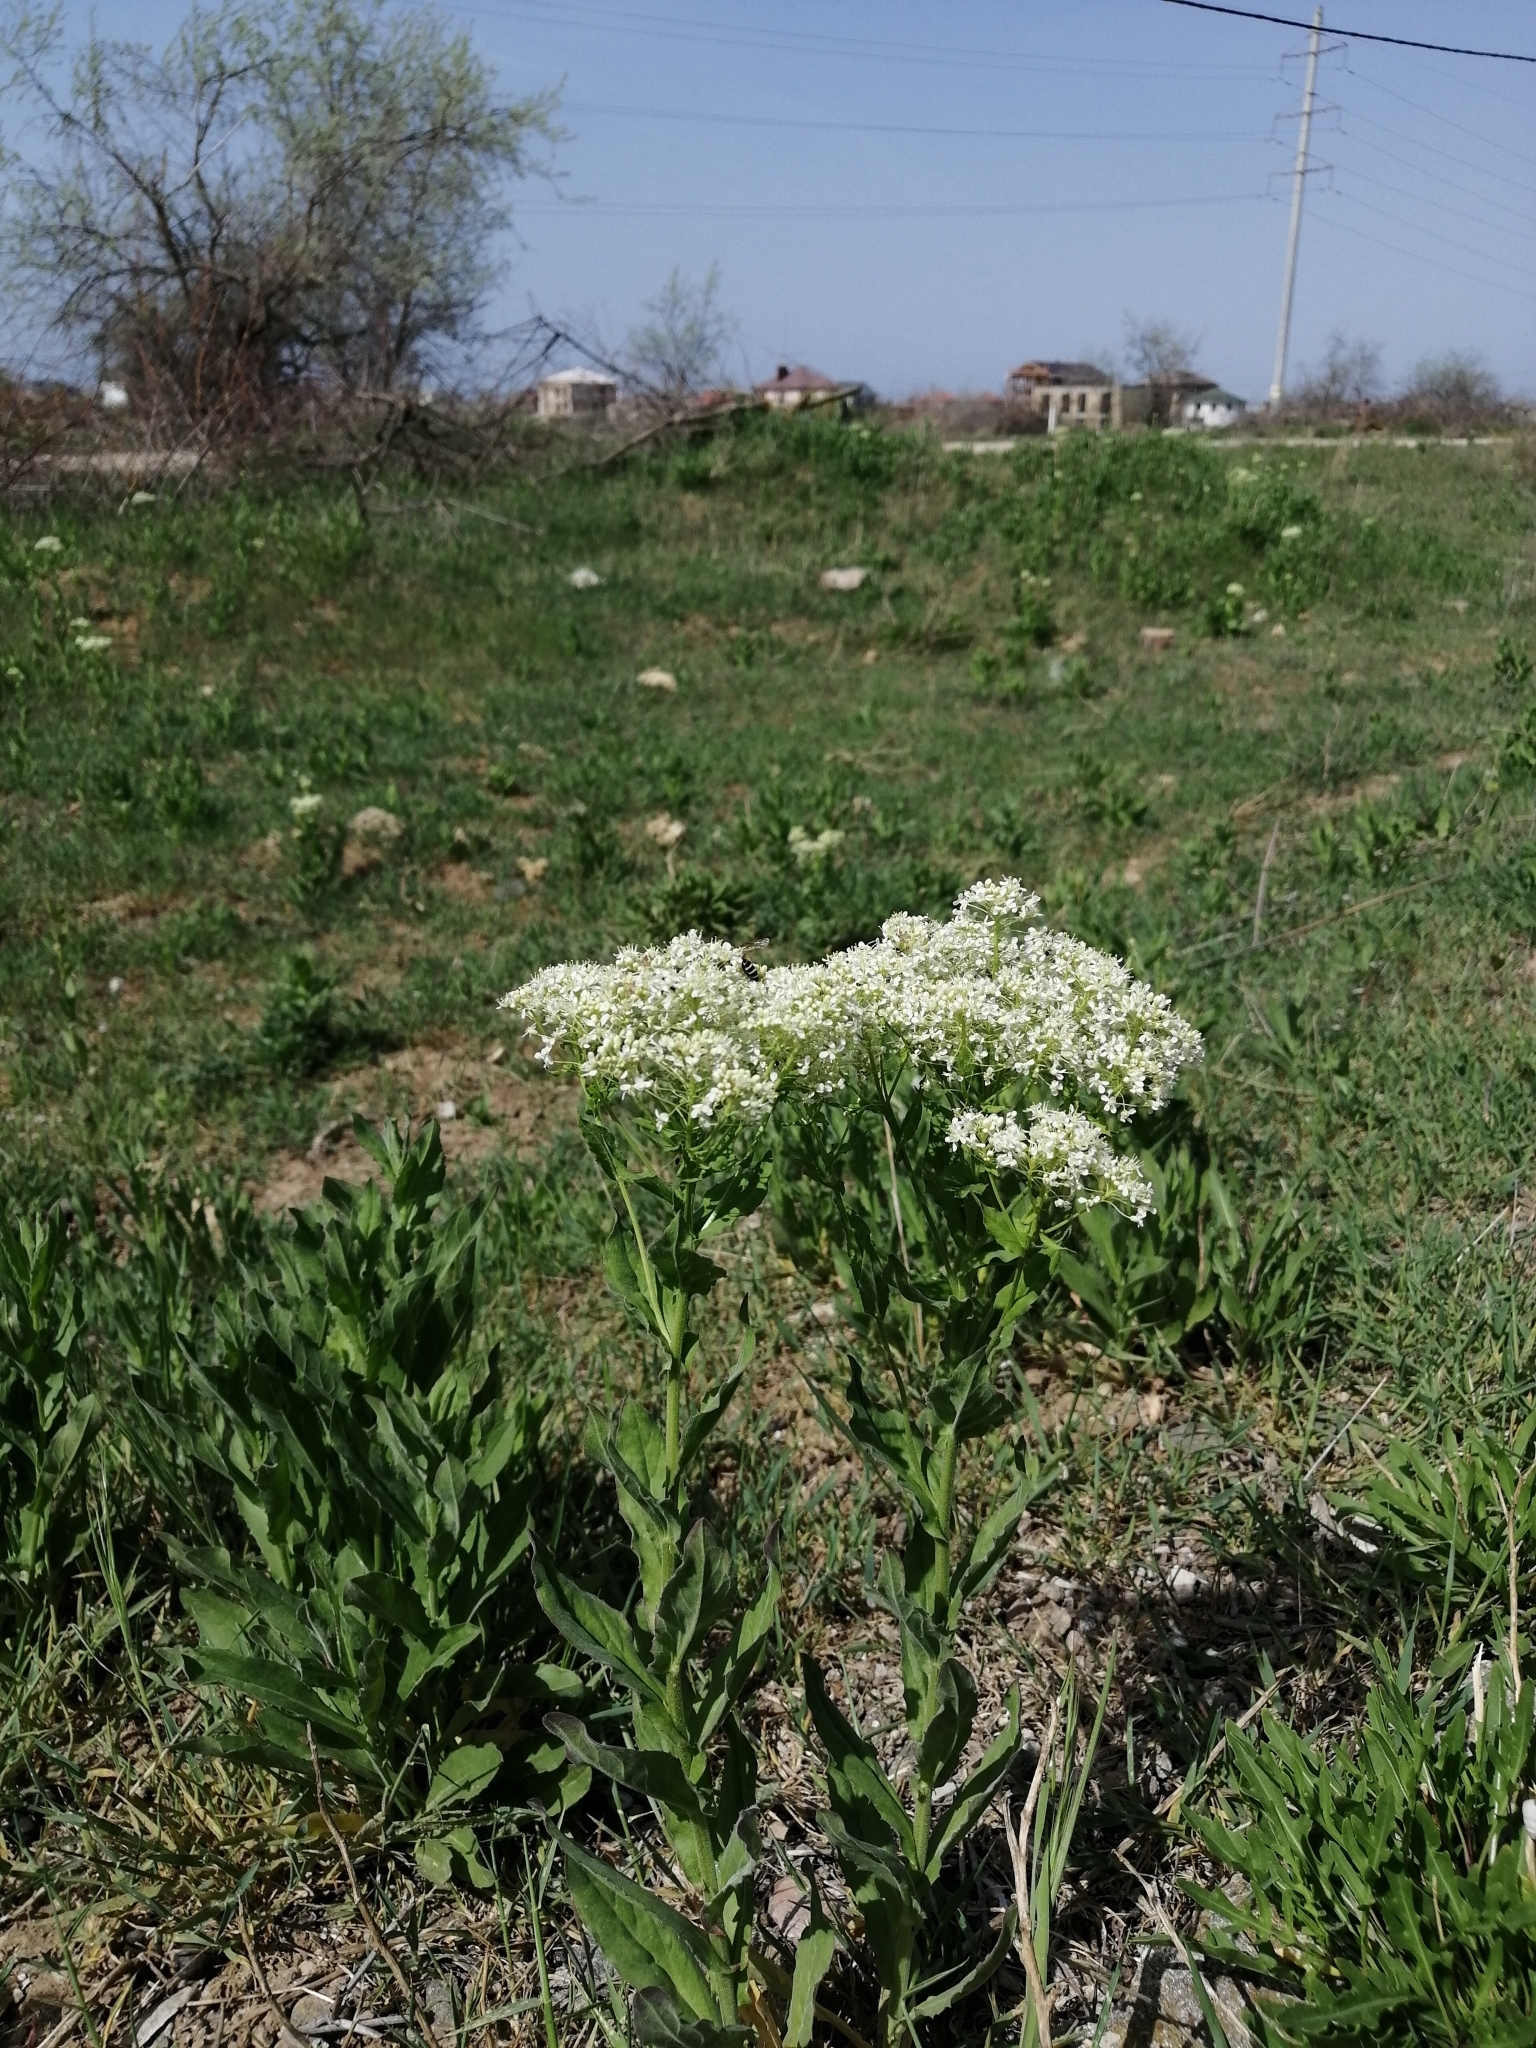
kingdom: Plantae
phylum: Tracheophyta
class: Magnoliopsida
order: Brassicales
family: Brassicaceae
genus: Lepidium
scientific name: Lepidium draba
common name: Hoary cress
